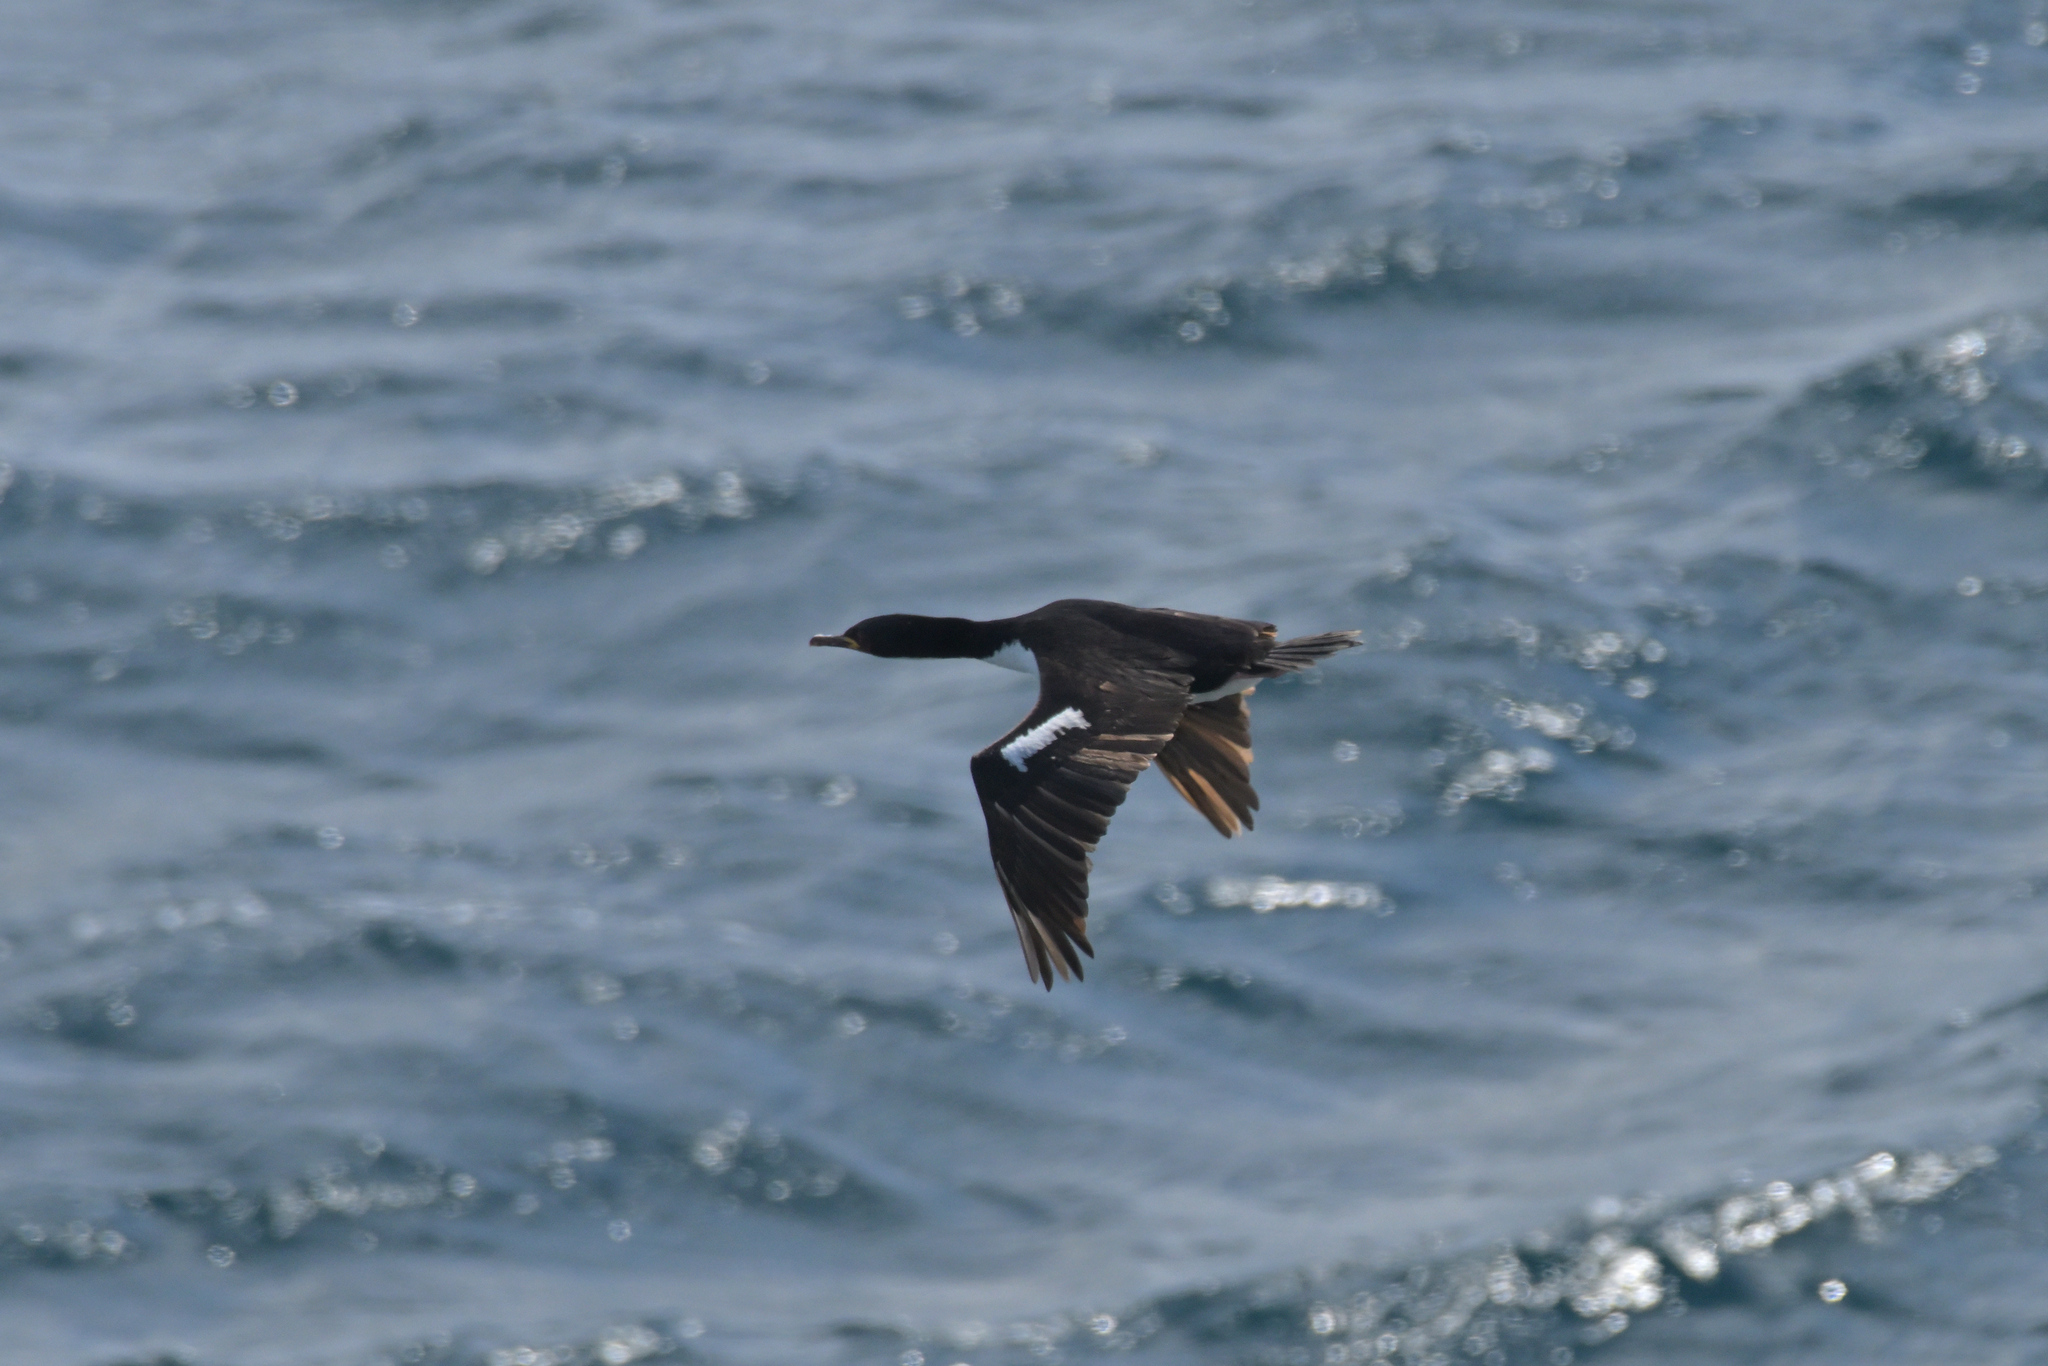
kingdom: Animalia
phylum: Chordata
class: Aves
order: Suliformes
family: Phalacrocoracidae
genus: Leucocarbo
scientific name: Leucocarbo colensoi
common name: Auckland shag
